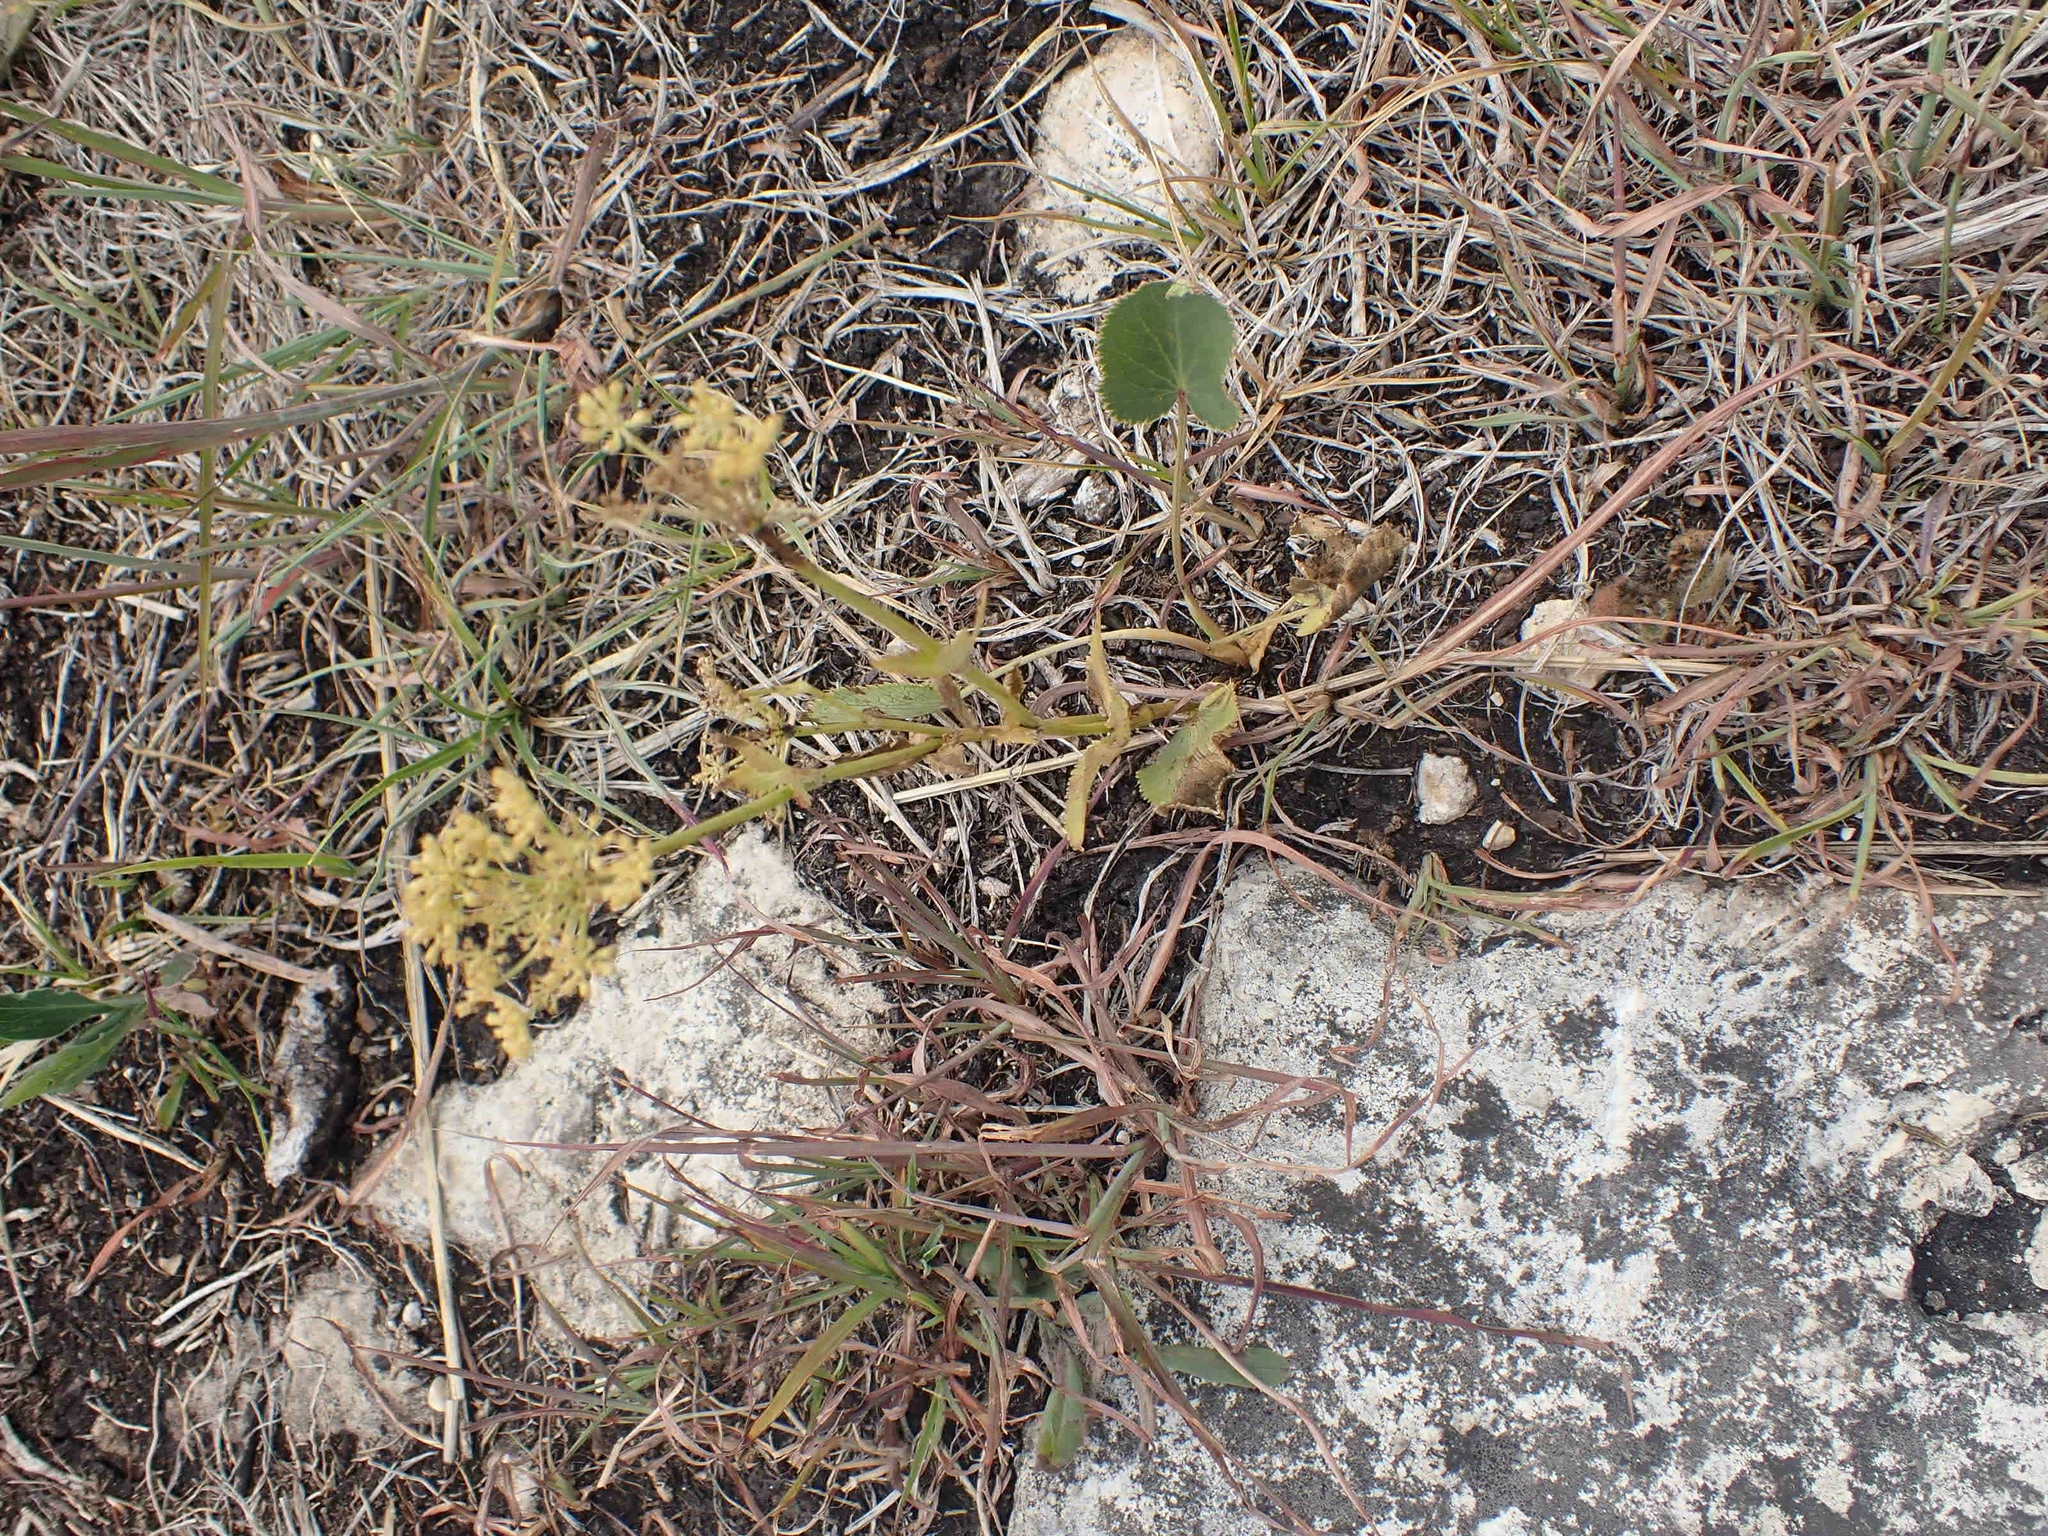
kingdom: Plantae
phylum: Tracheophyta
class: Magnoliopsida
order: Apiales
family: Apiaceae
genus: Zizia
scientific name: Zizia aptera
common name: Heart-leaved alexanders
